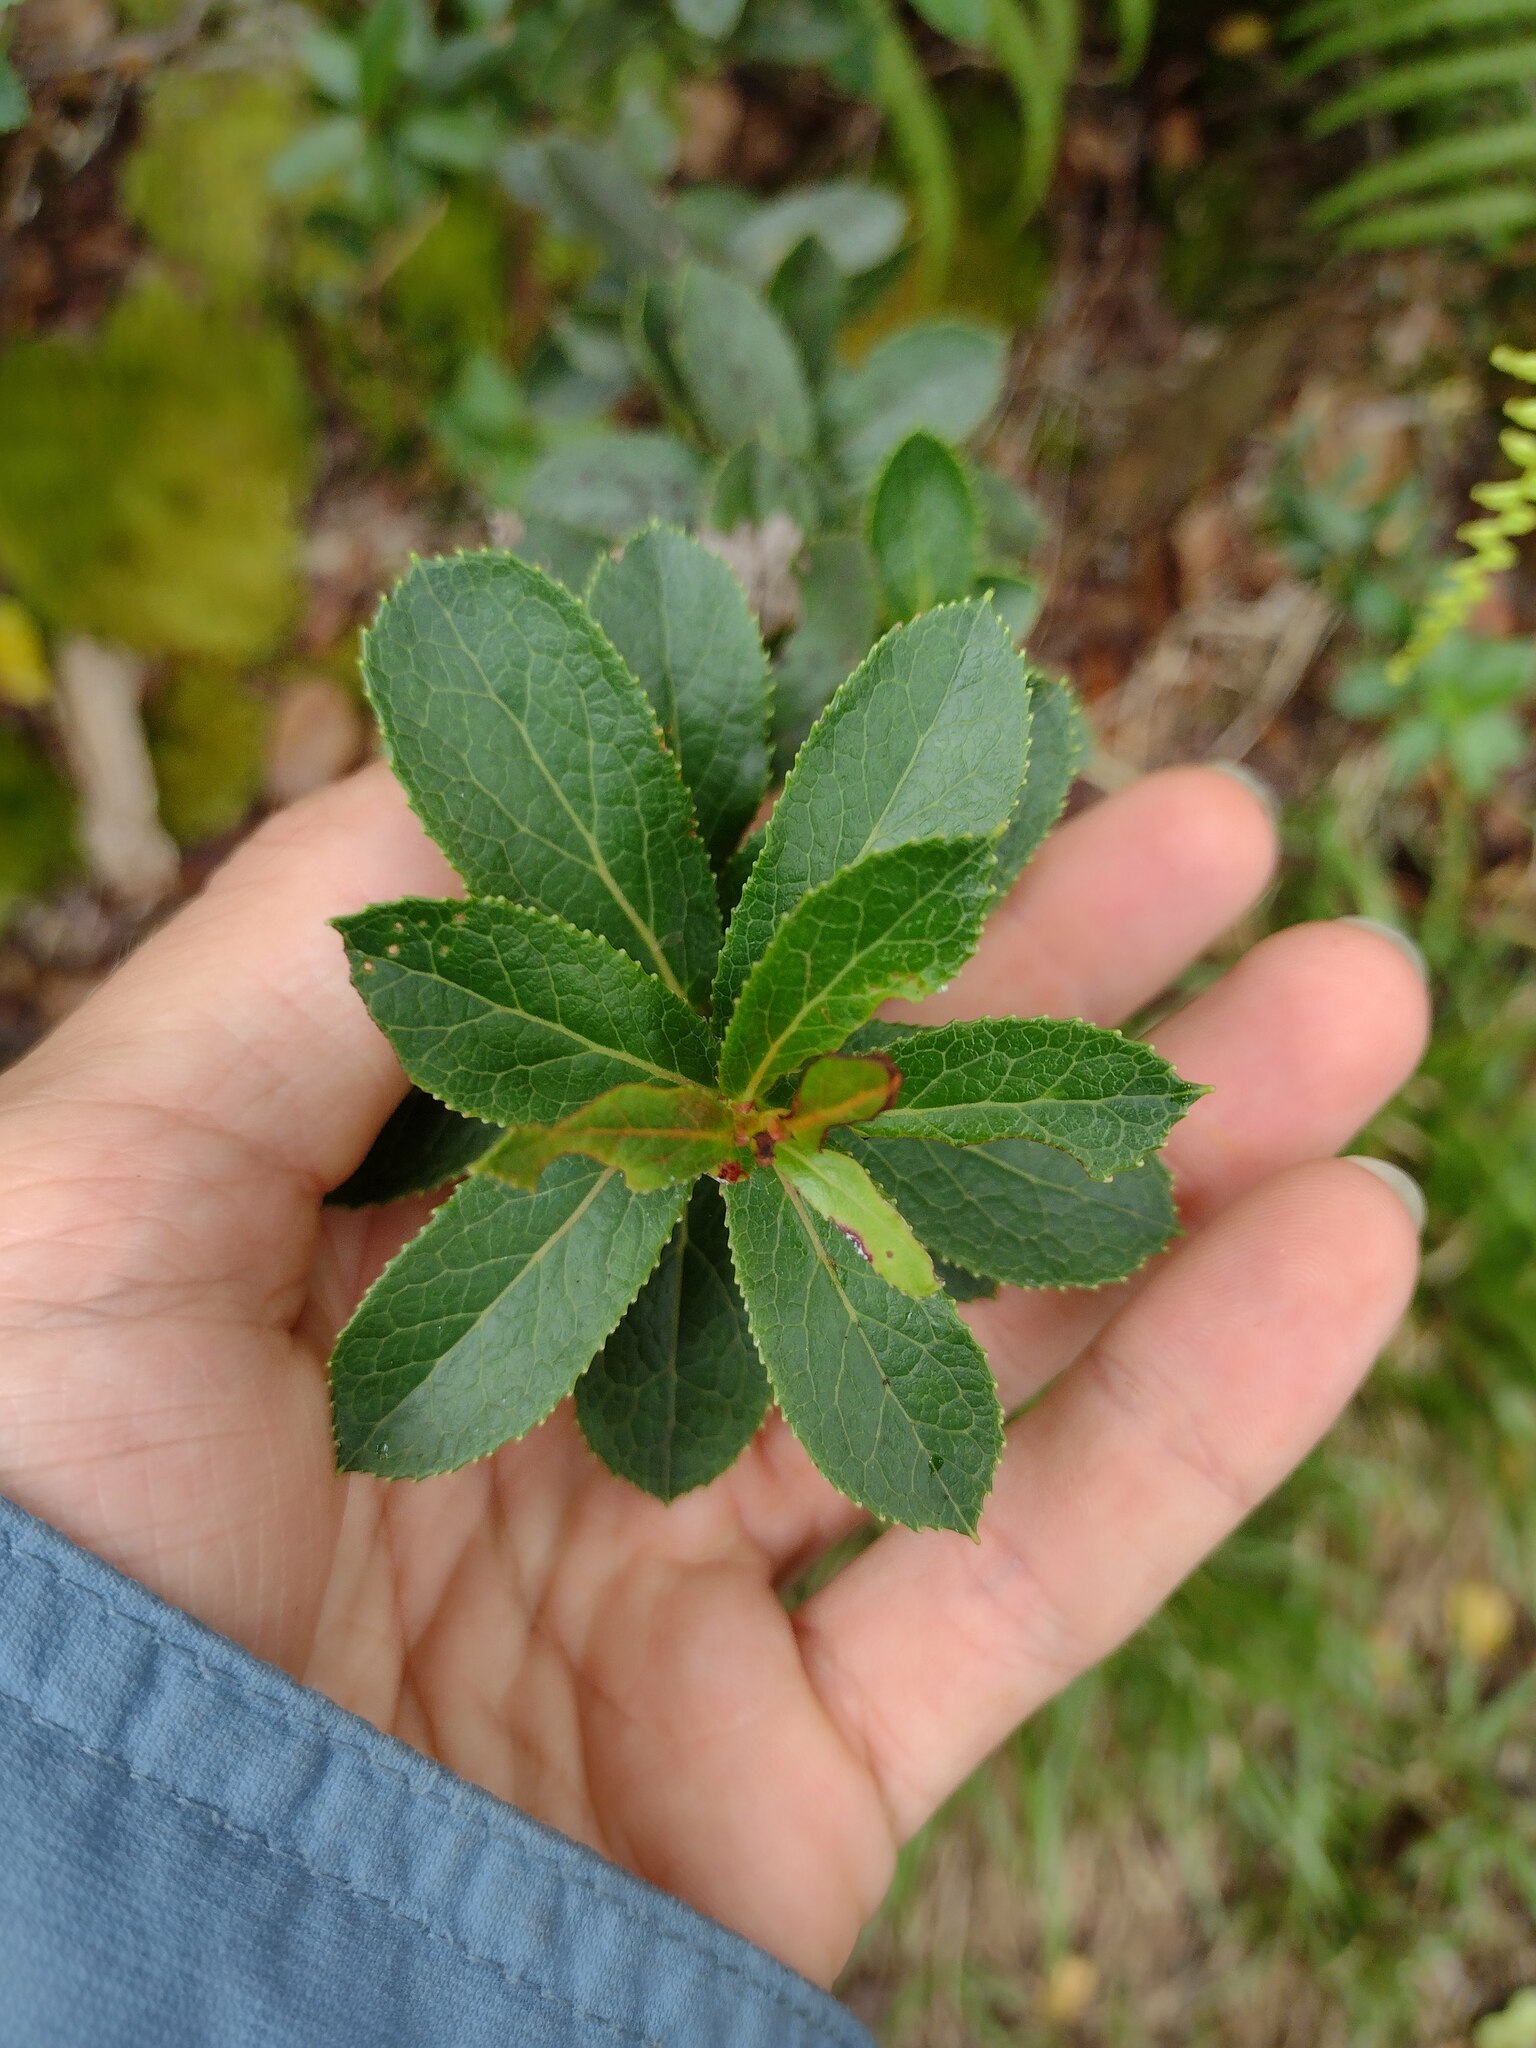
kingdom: Plantae
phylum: Tracheophyta
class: Magnoliopsida
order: Ericales
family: Ericaceae
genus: Vaccinium
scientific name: Vaccinium dentatum
